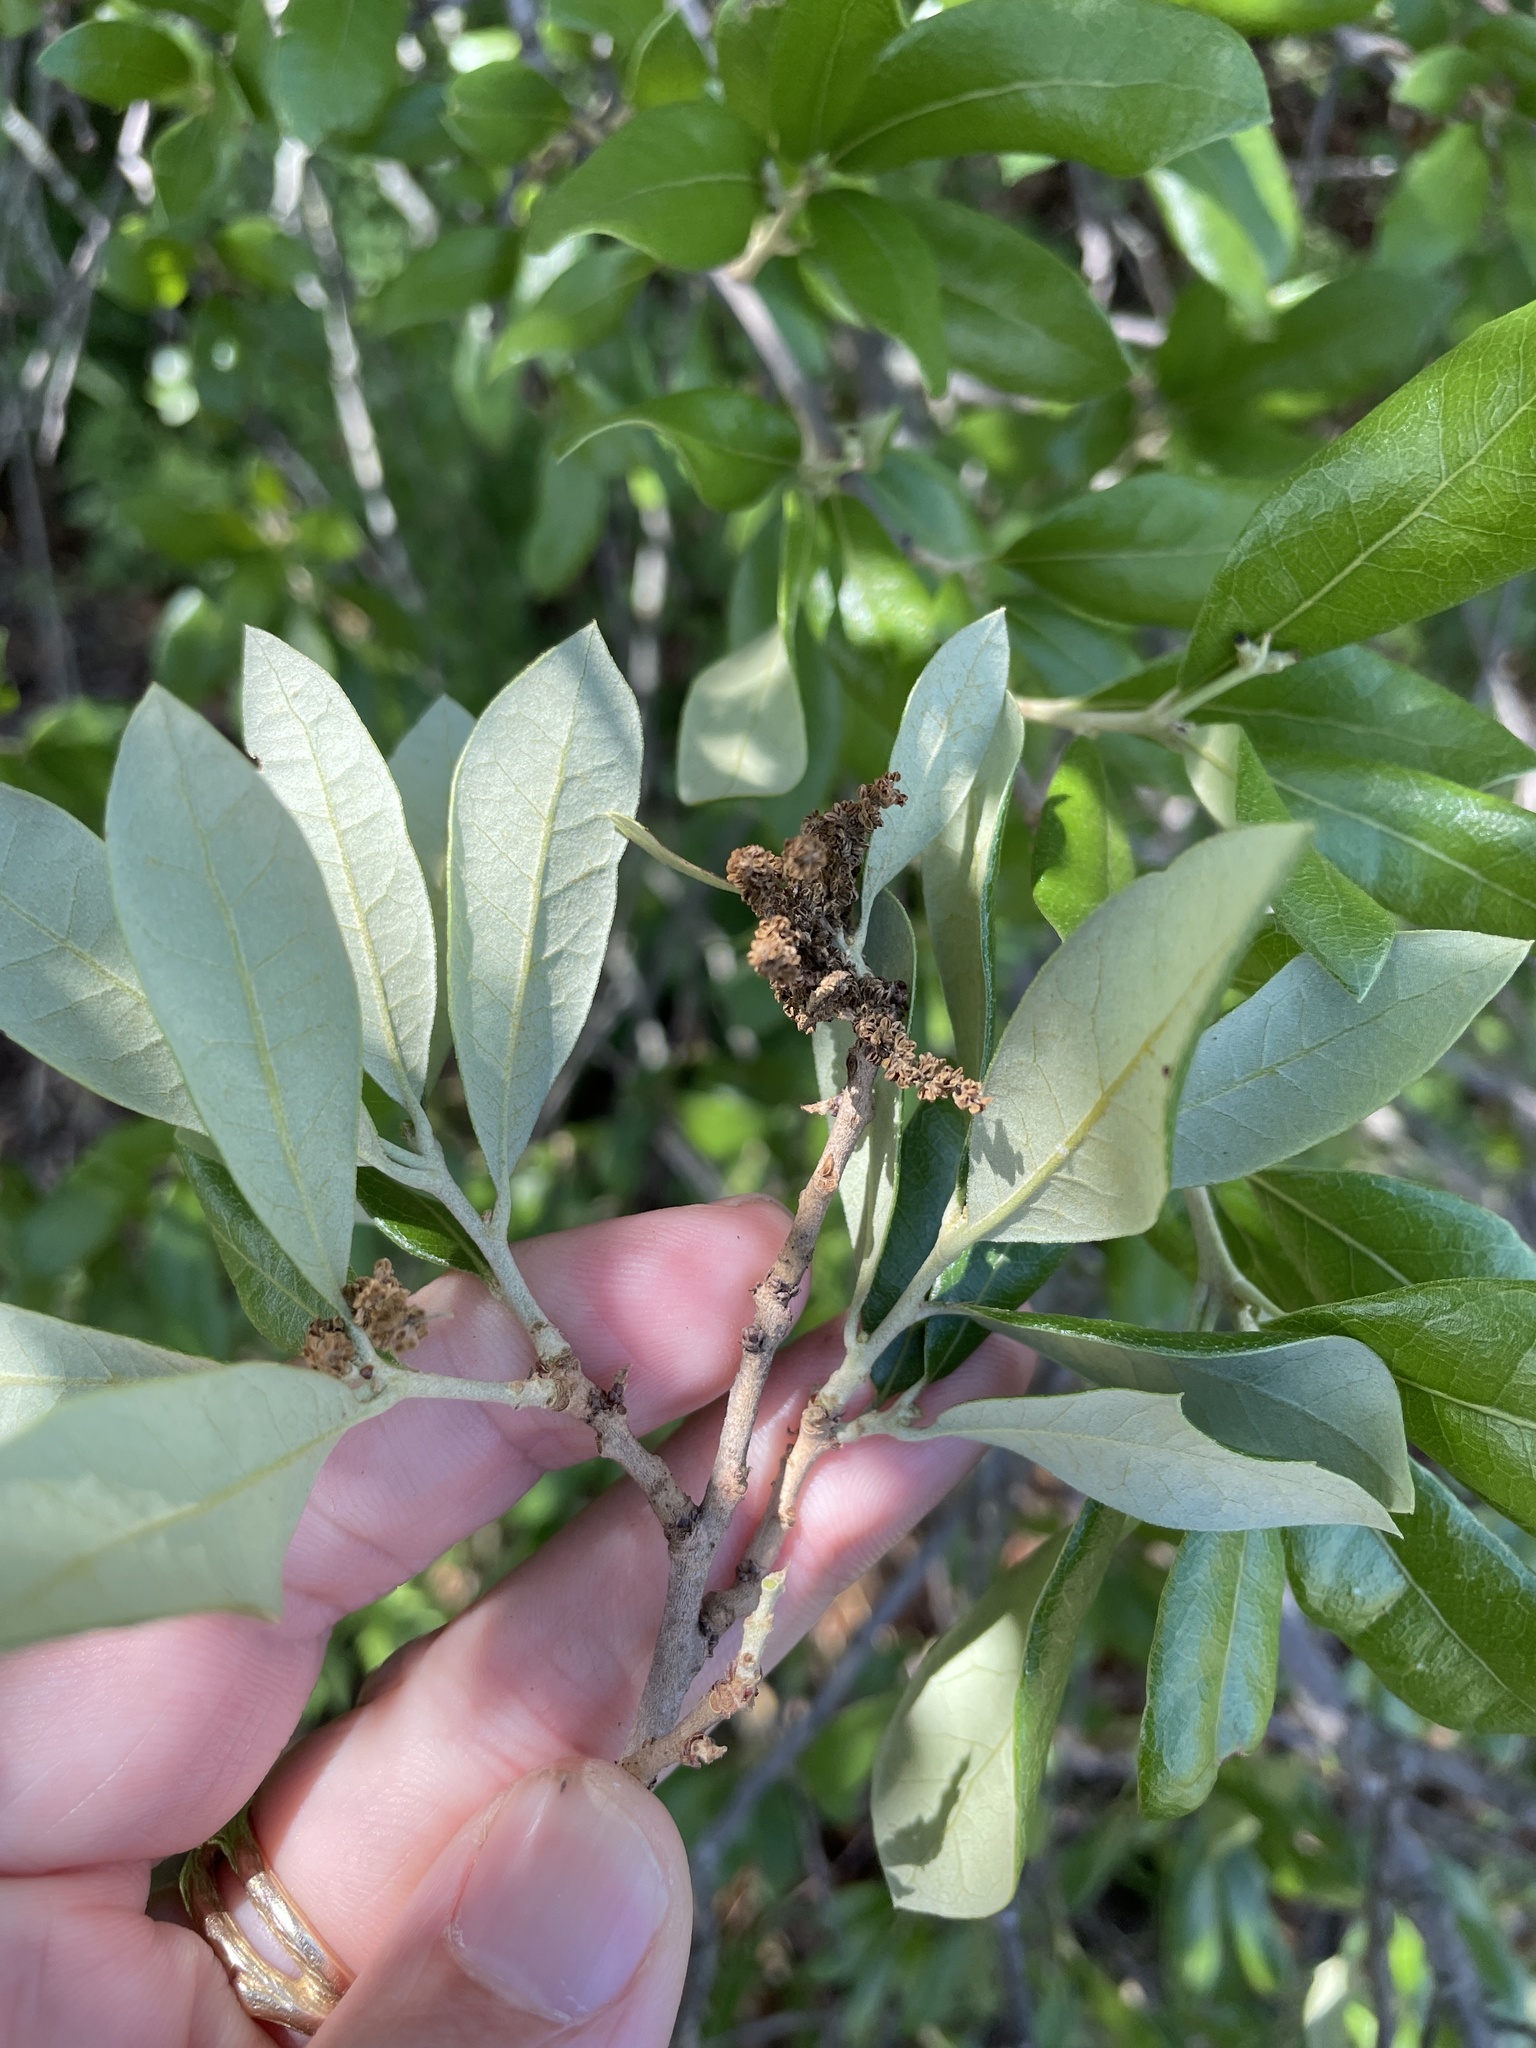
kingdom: Plantae
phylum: Tracheophyta
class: Magnoliopsida
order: Fagales
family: Fagaceae
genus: Quercus
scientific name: Quercus fusiformis
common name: Texas live oak
